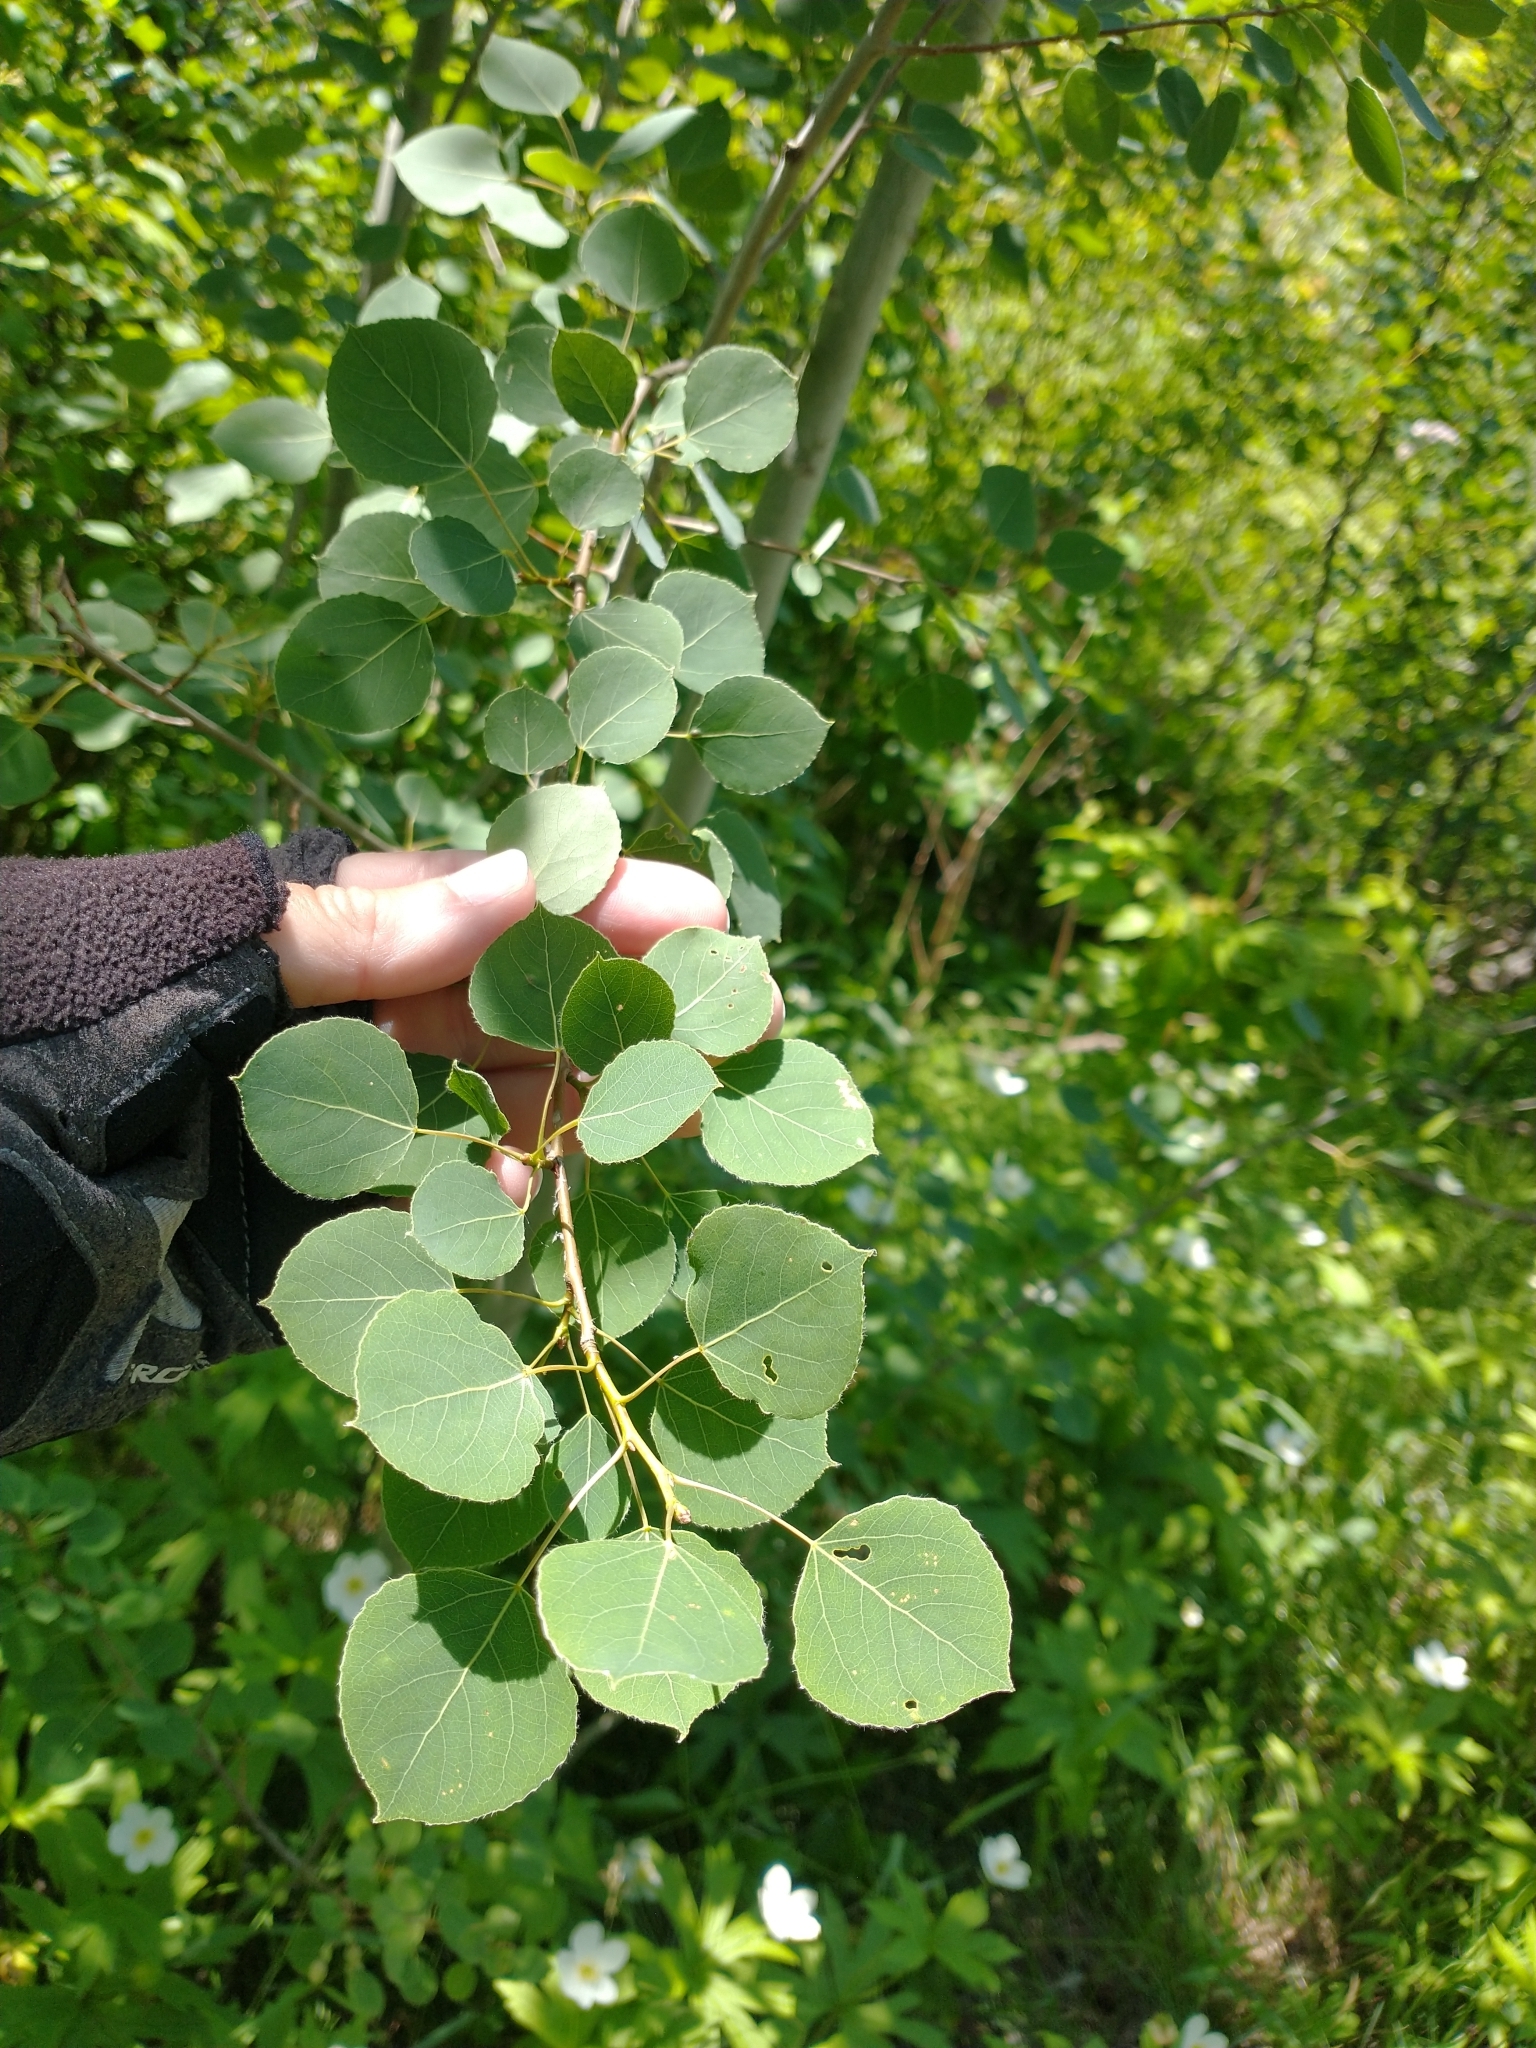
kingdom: Plantae
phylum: Tracheophyta
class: Magnoliopsida
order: Malpighiales
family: Salicaceae
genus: Populus
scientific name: Populus tremuloides
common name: Quaking aspen
